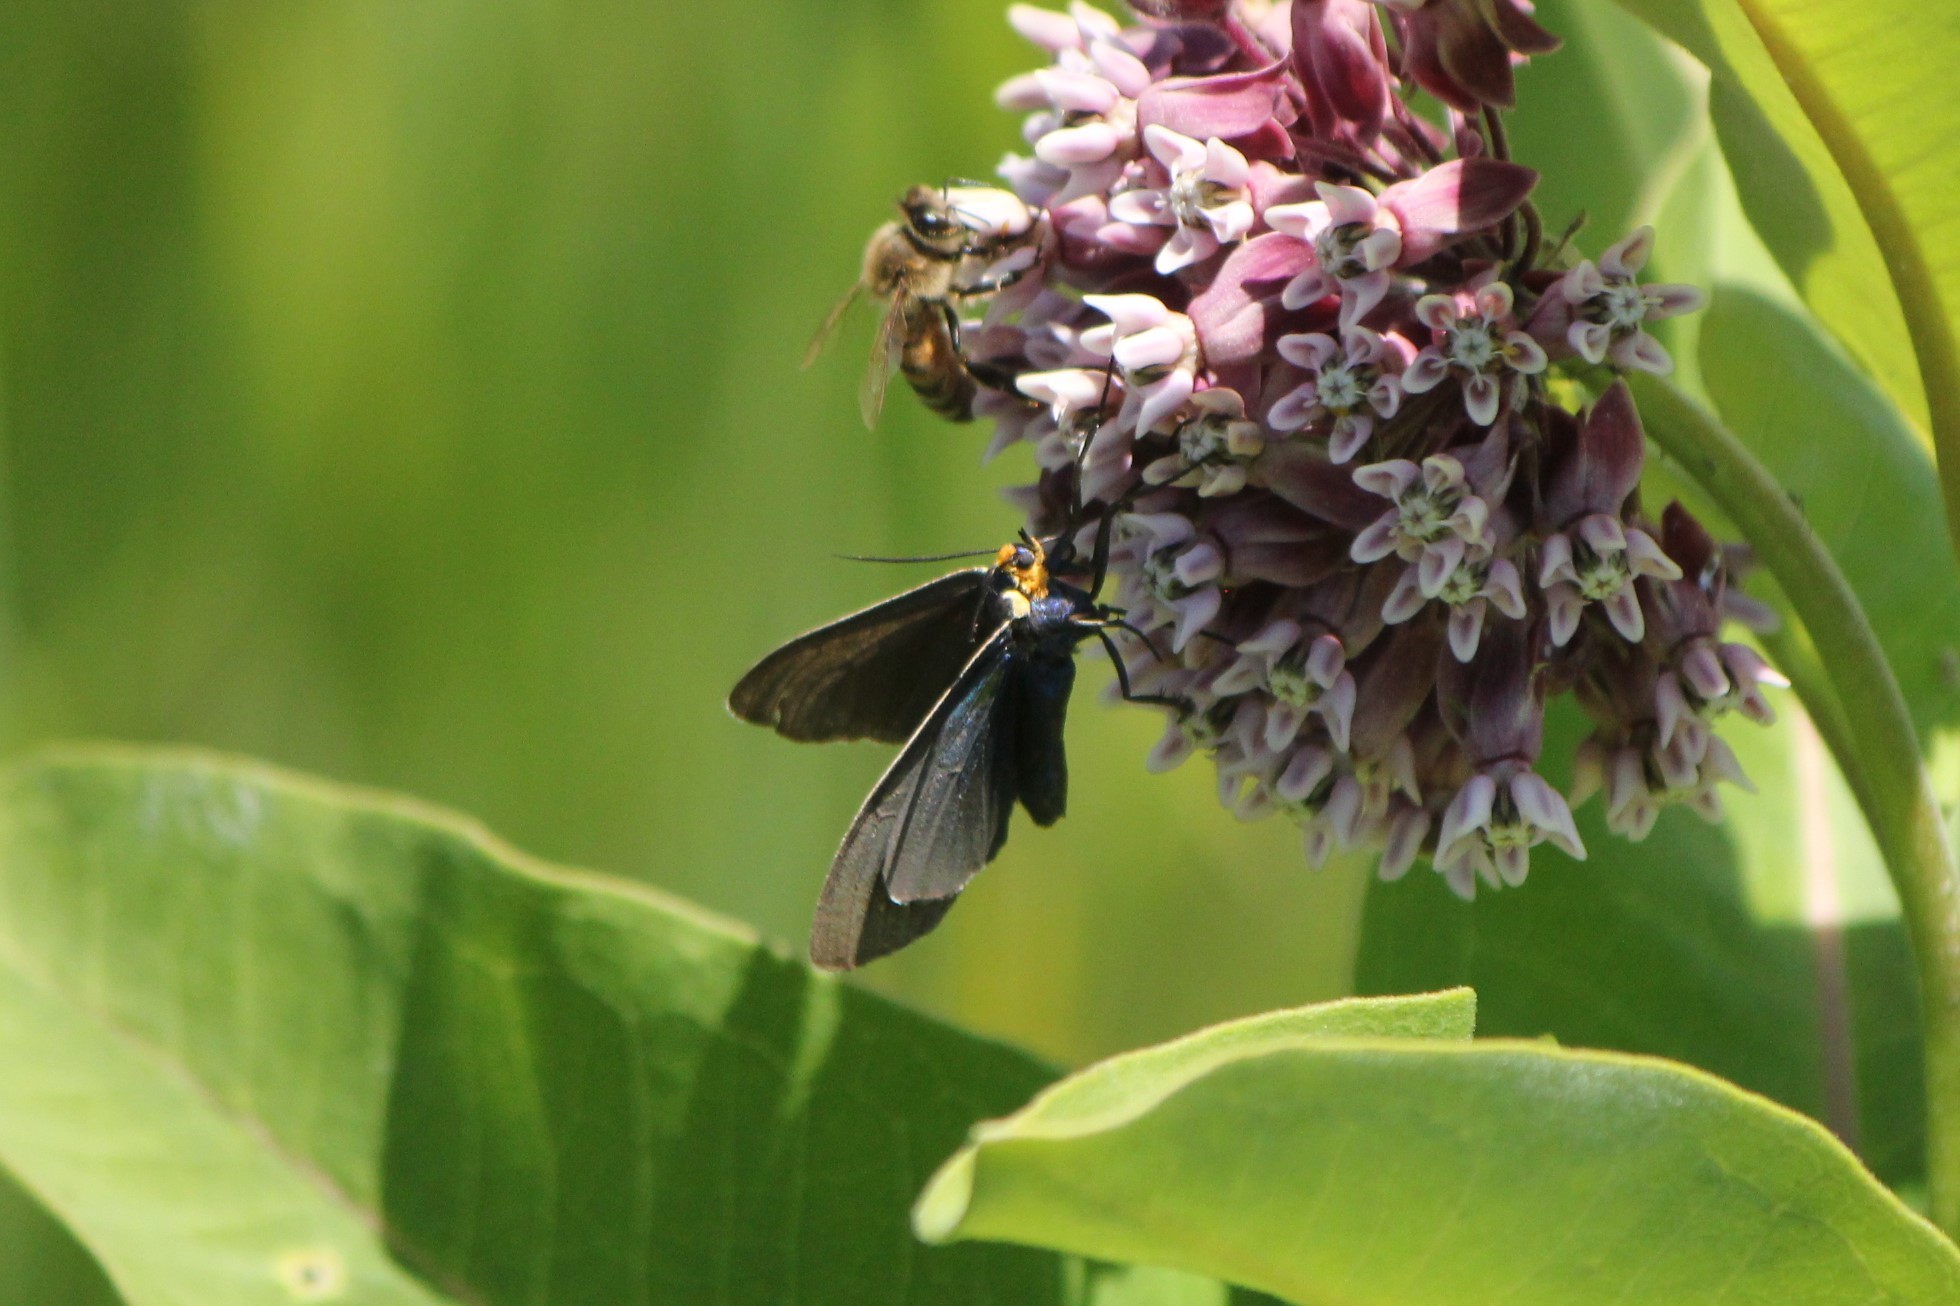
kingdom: Animalia
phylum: Arthropoda
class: Insecta
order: Lepidoptera
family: Erebidae
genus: Ctenucha
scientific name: Ctenucha virginica
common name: Virginia ctenucha moth
